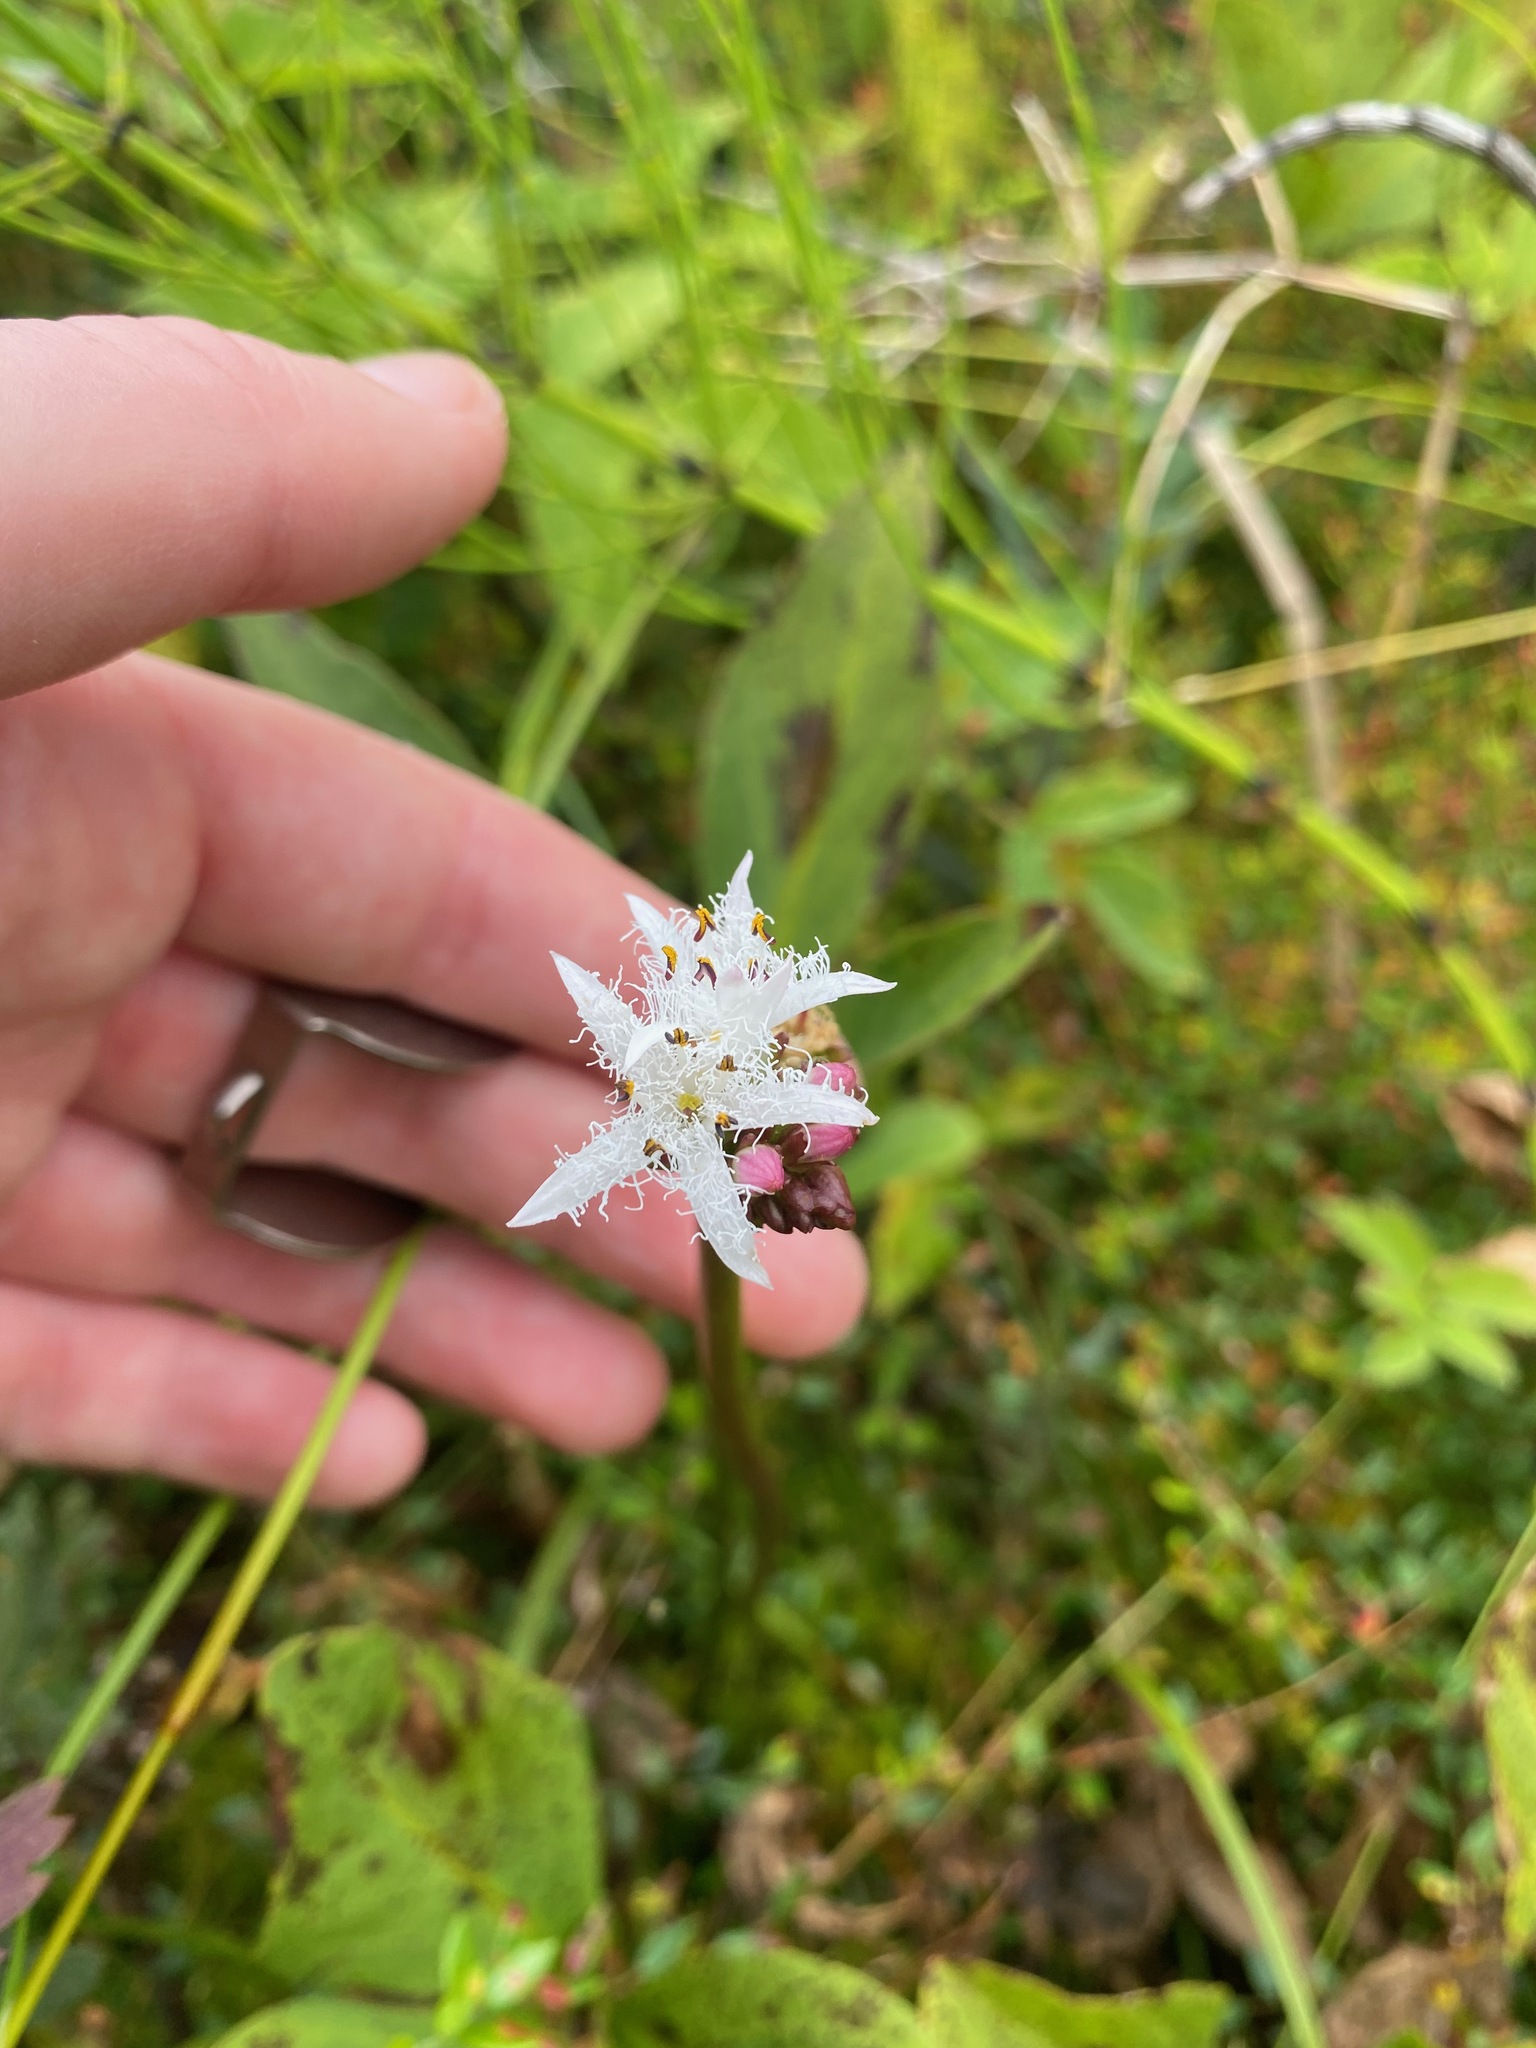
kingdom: Plantae
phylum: Tracheophyta
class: Magnoliopsida
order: Asterales
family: Menyanthaceae
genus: Menyanthes
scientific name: Menyanthes trifoliata
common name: Bogbean
